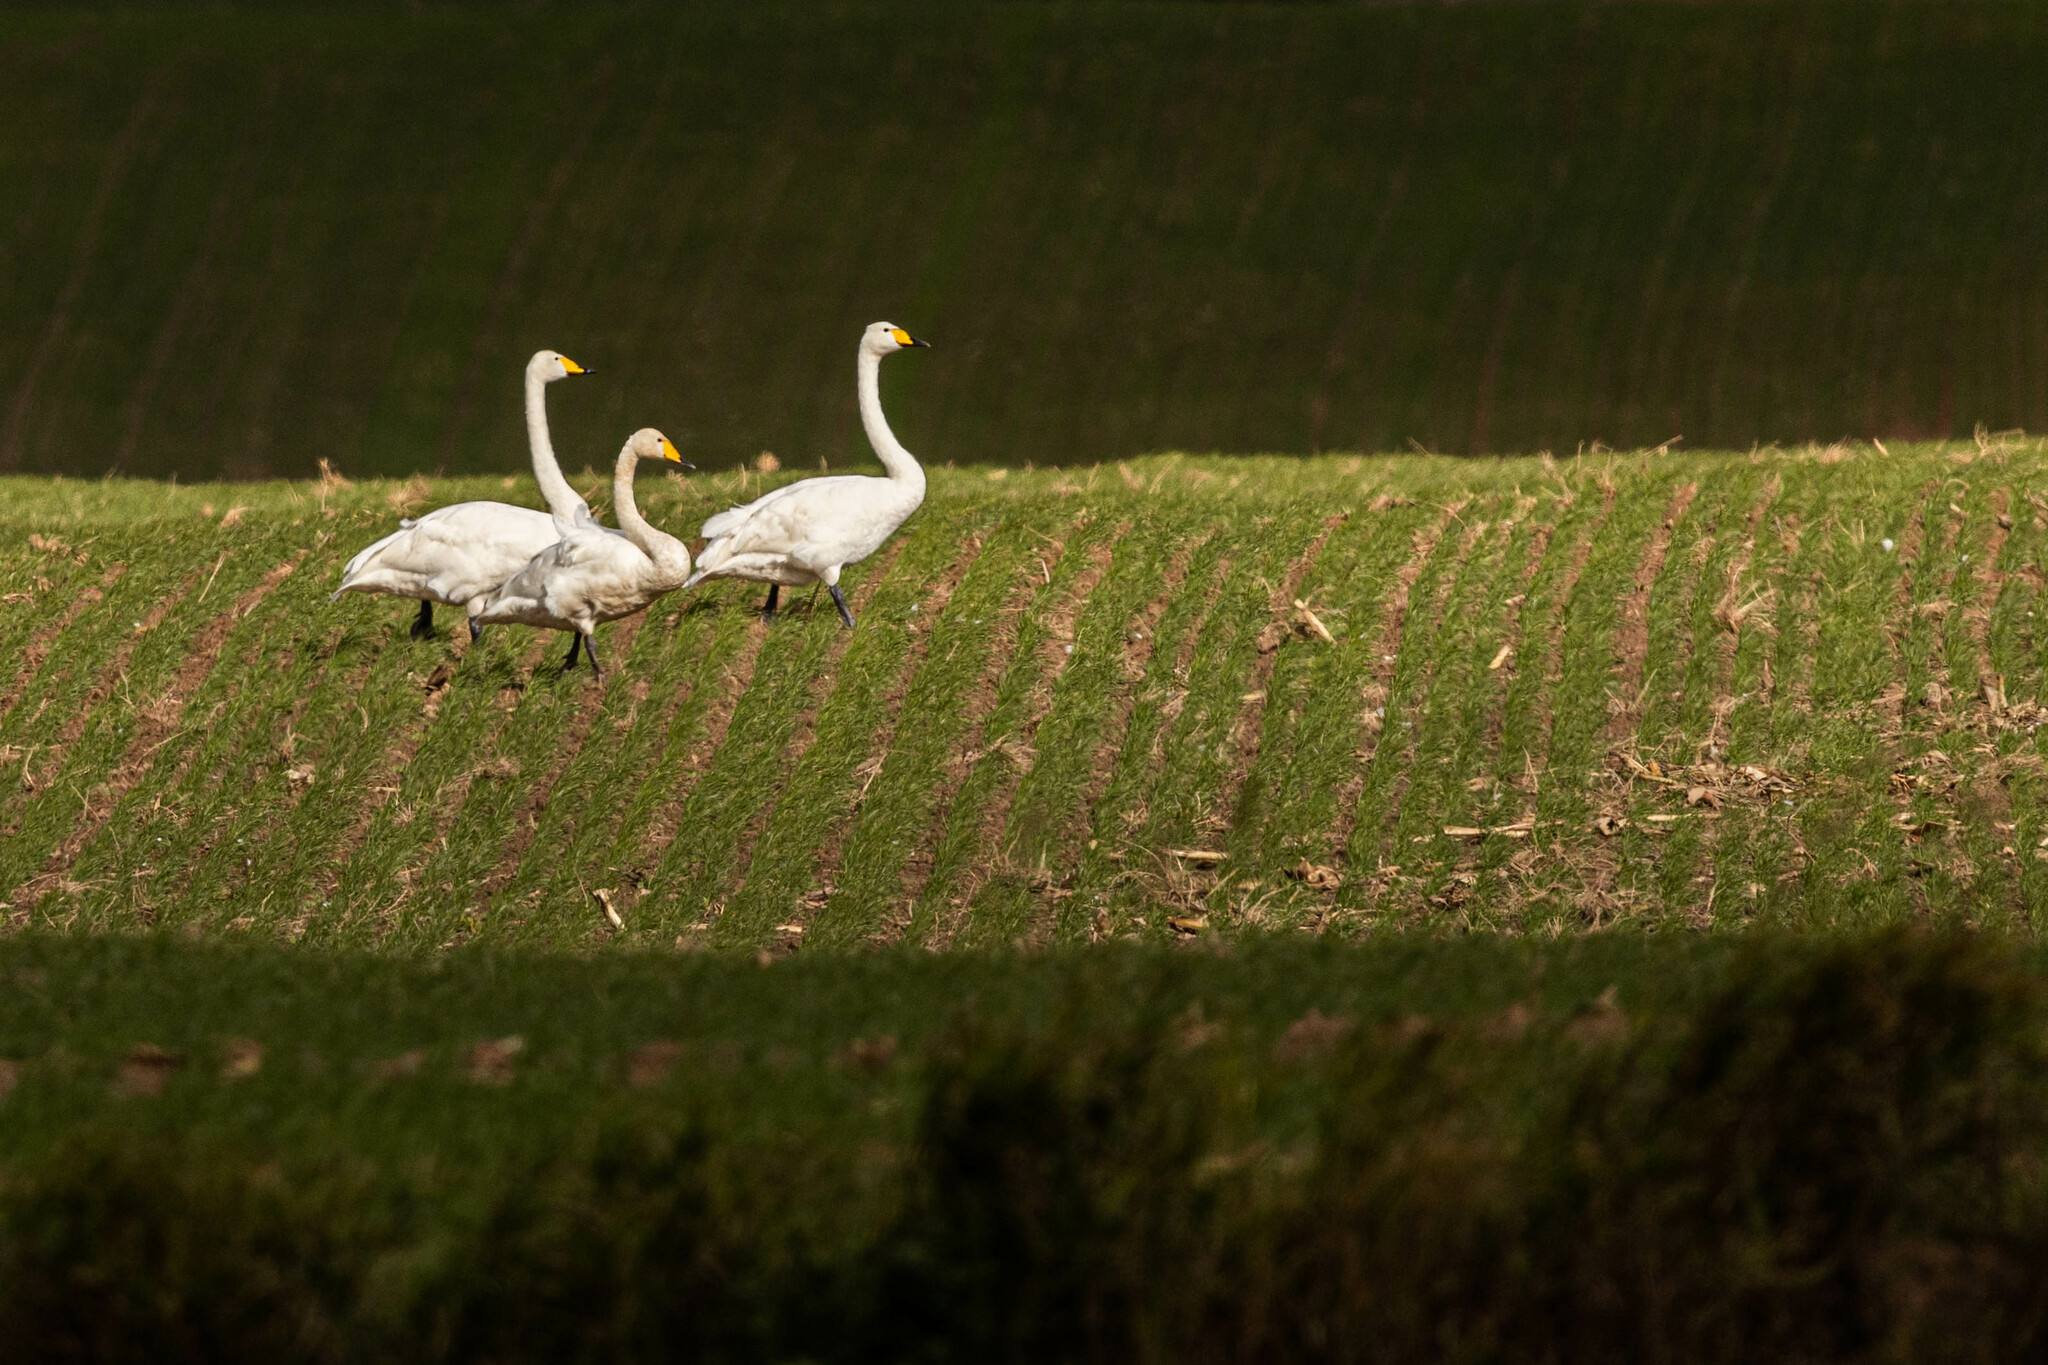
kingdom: Animalia
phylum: Chordata
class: Aves
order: Anseriformes
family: Anatidae
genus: Cygnus
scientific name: Cygnus cygnus
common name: Whooper swan
